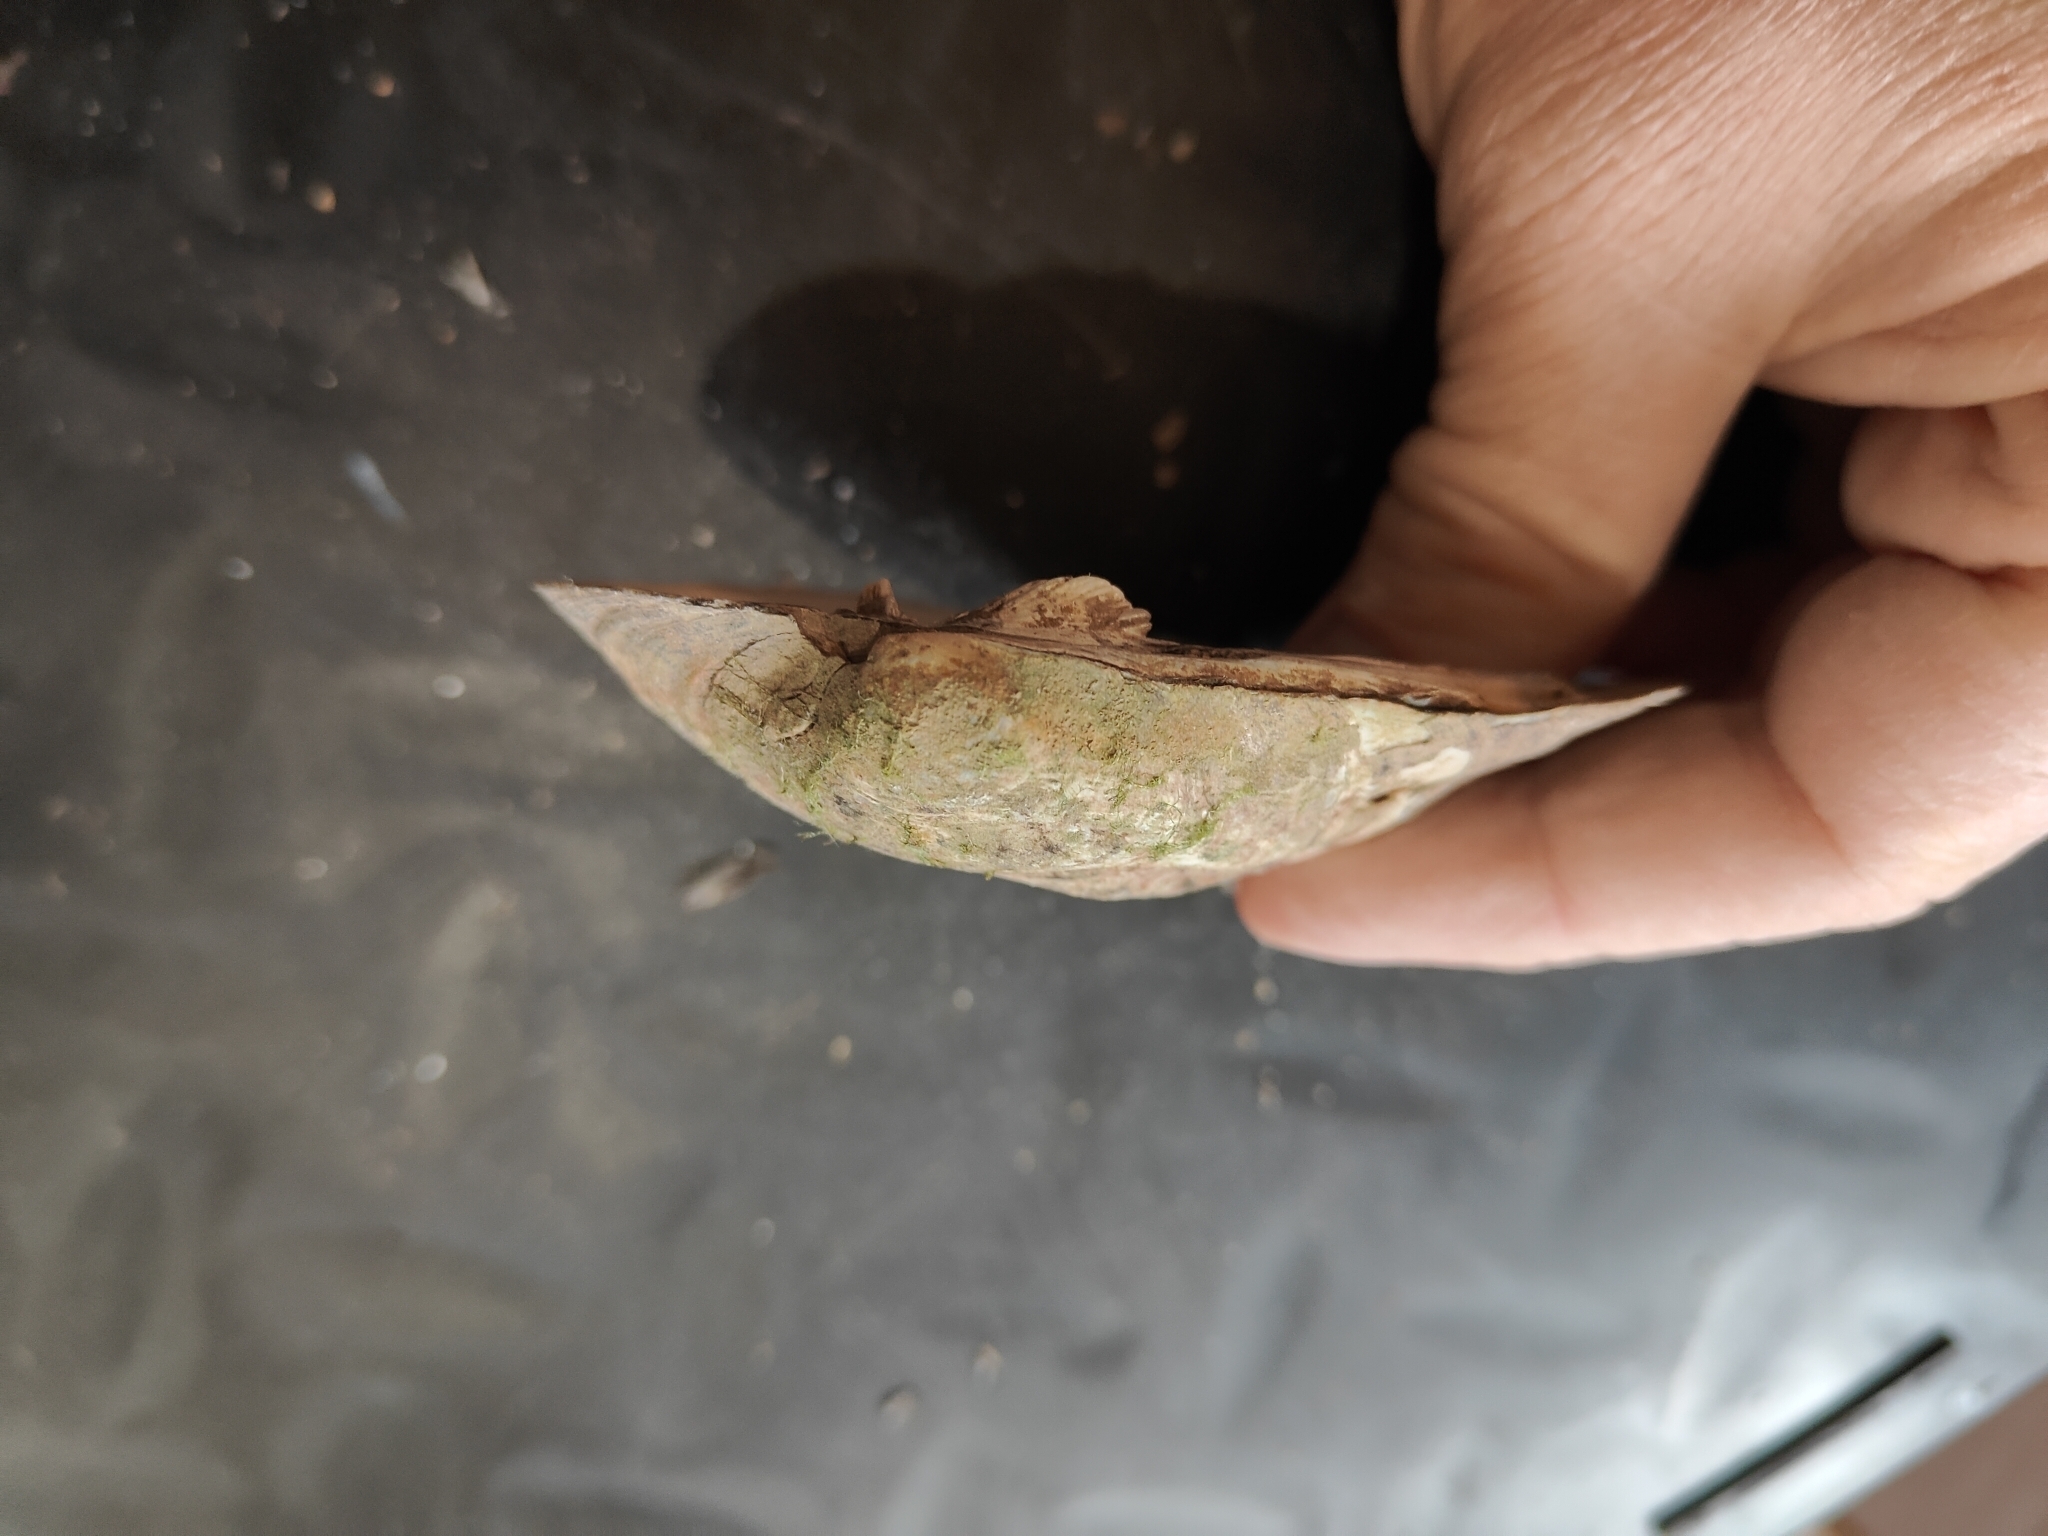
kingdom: Animalia
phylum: Mollusca
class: Bivalvia
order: Unionida
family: Unionidae
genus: Amblema
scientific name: Amblema plicata
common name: Threeridge
